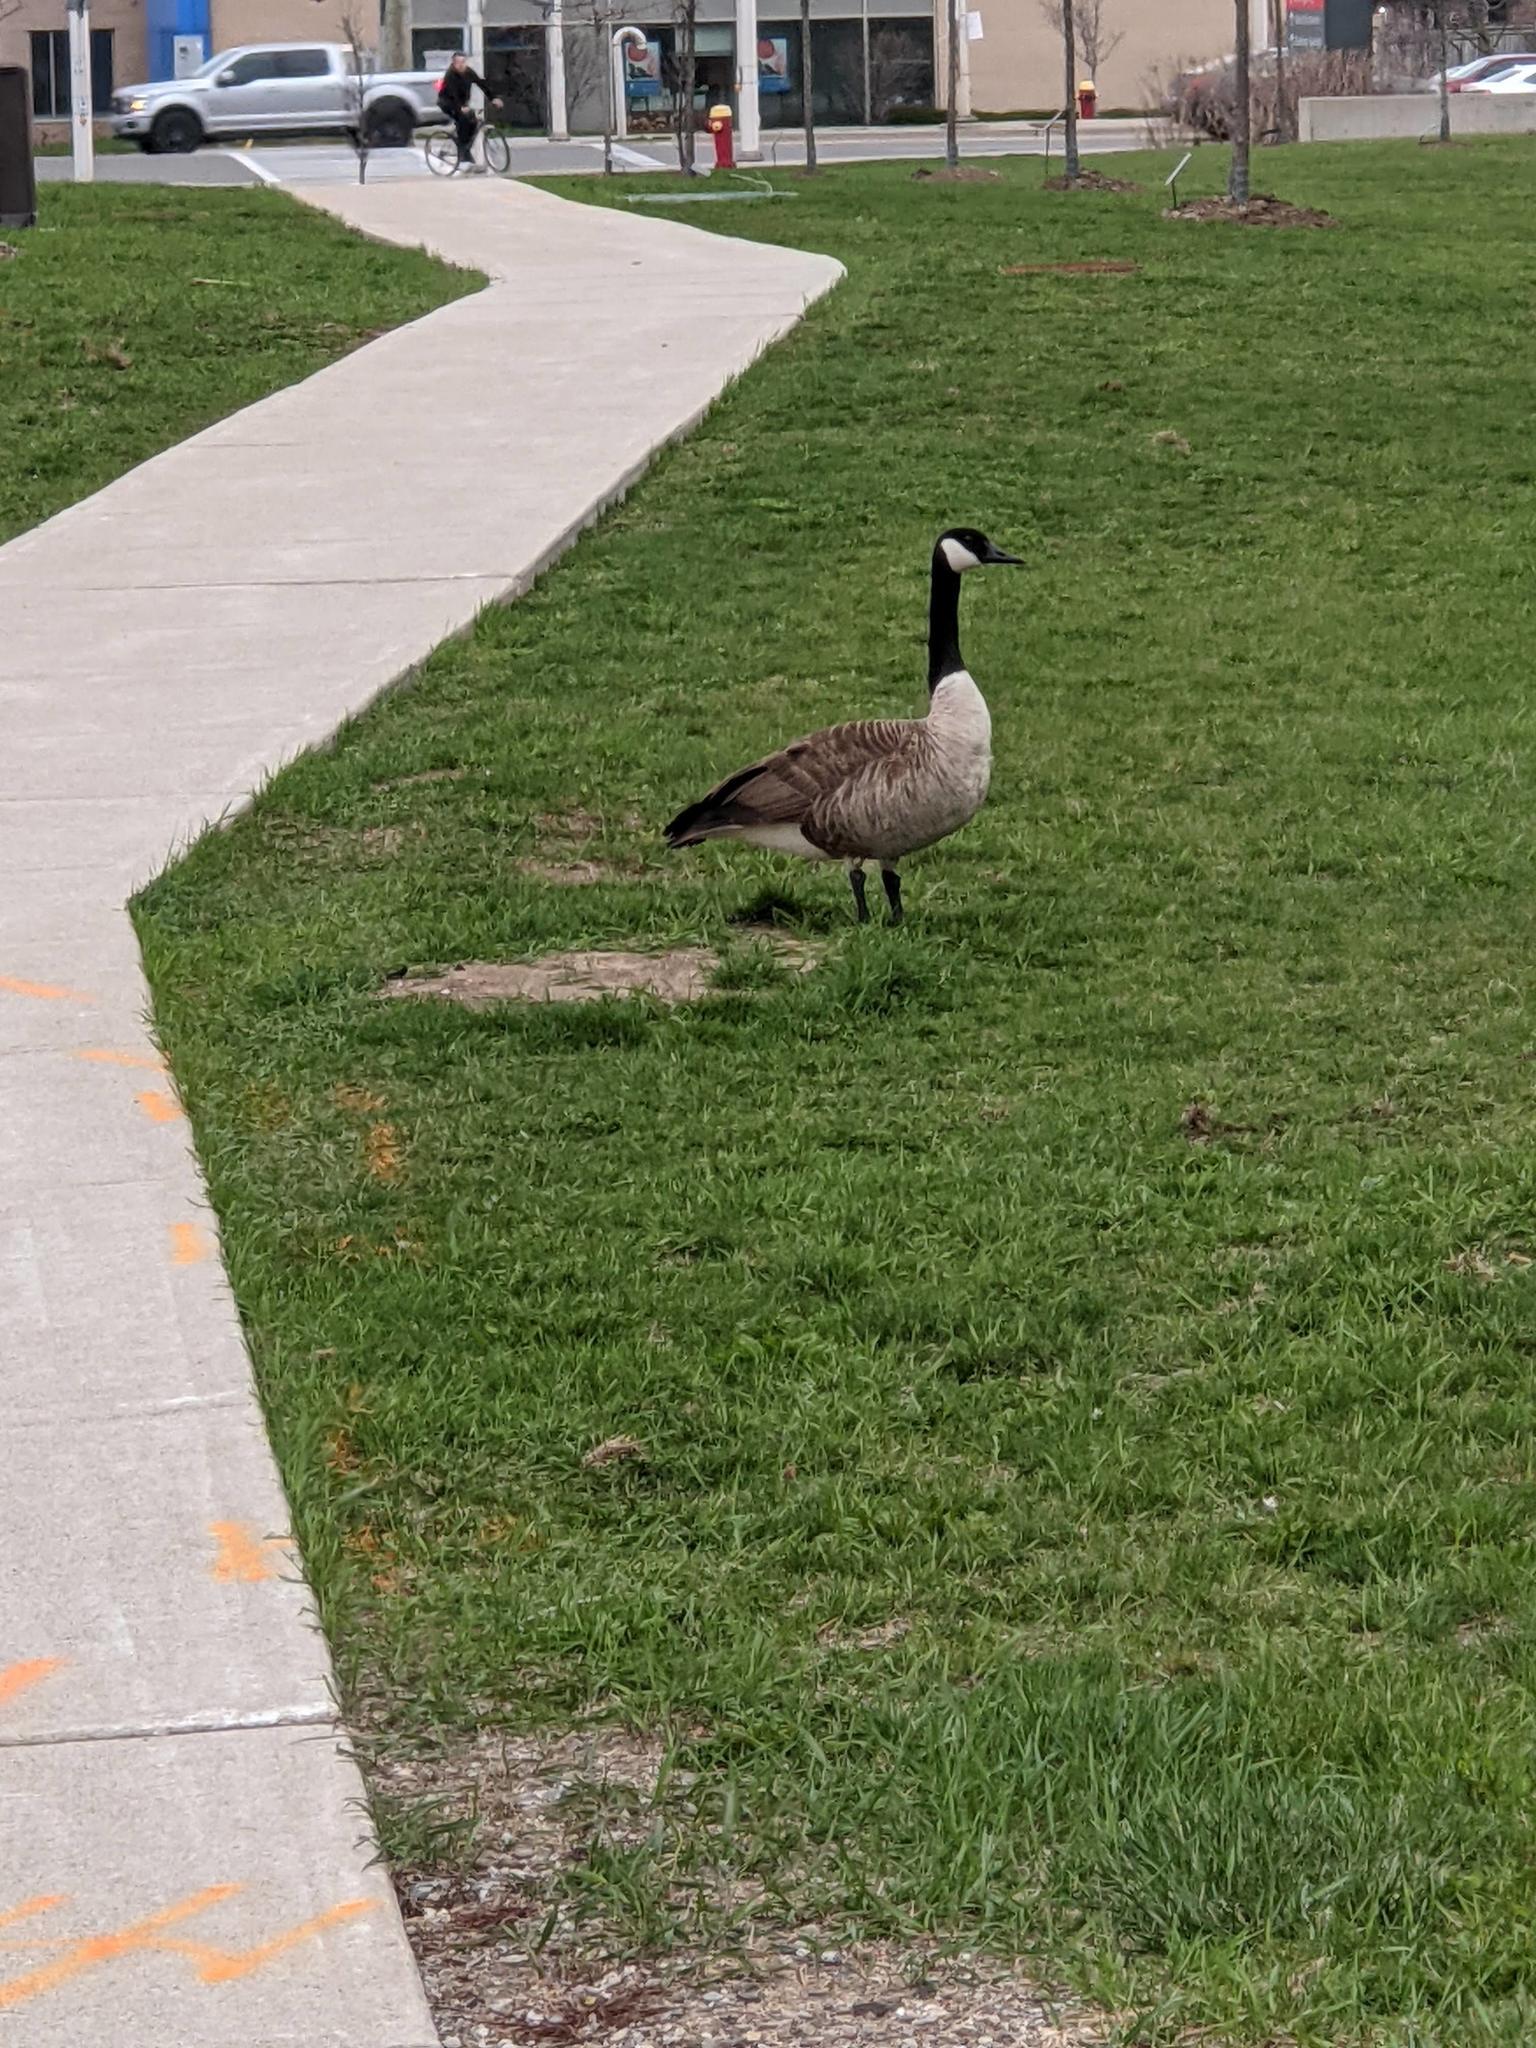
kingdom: Animalia
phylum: Chordata
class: Aves
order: Anseriformes
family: Anatidae
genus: Branta
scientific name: Branta canadensis
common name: Canada goose
